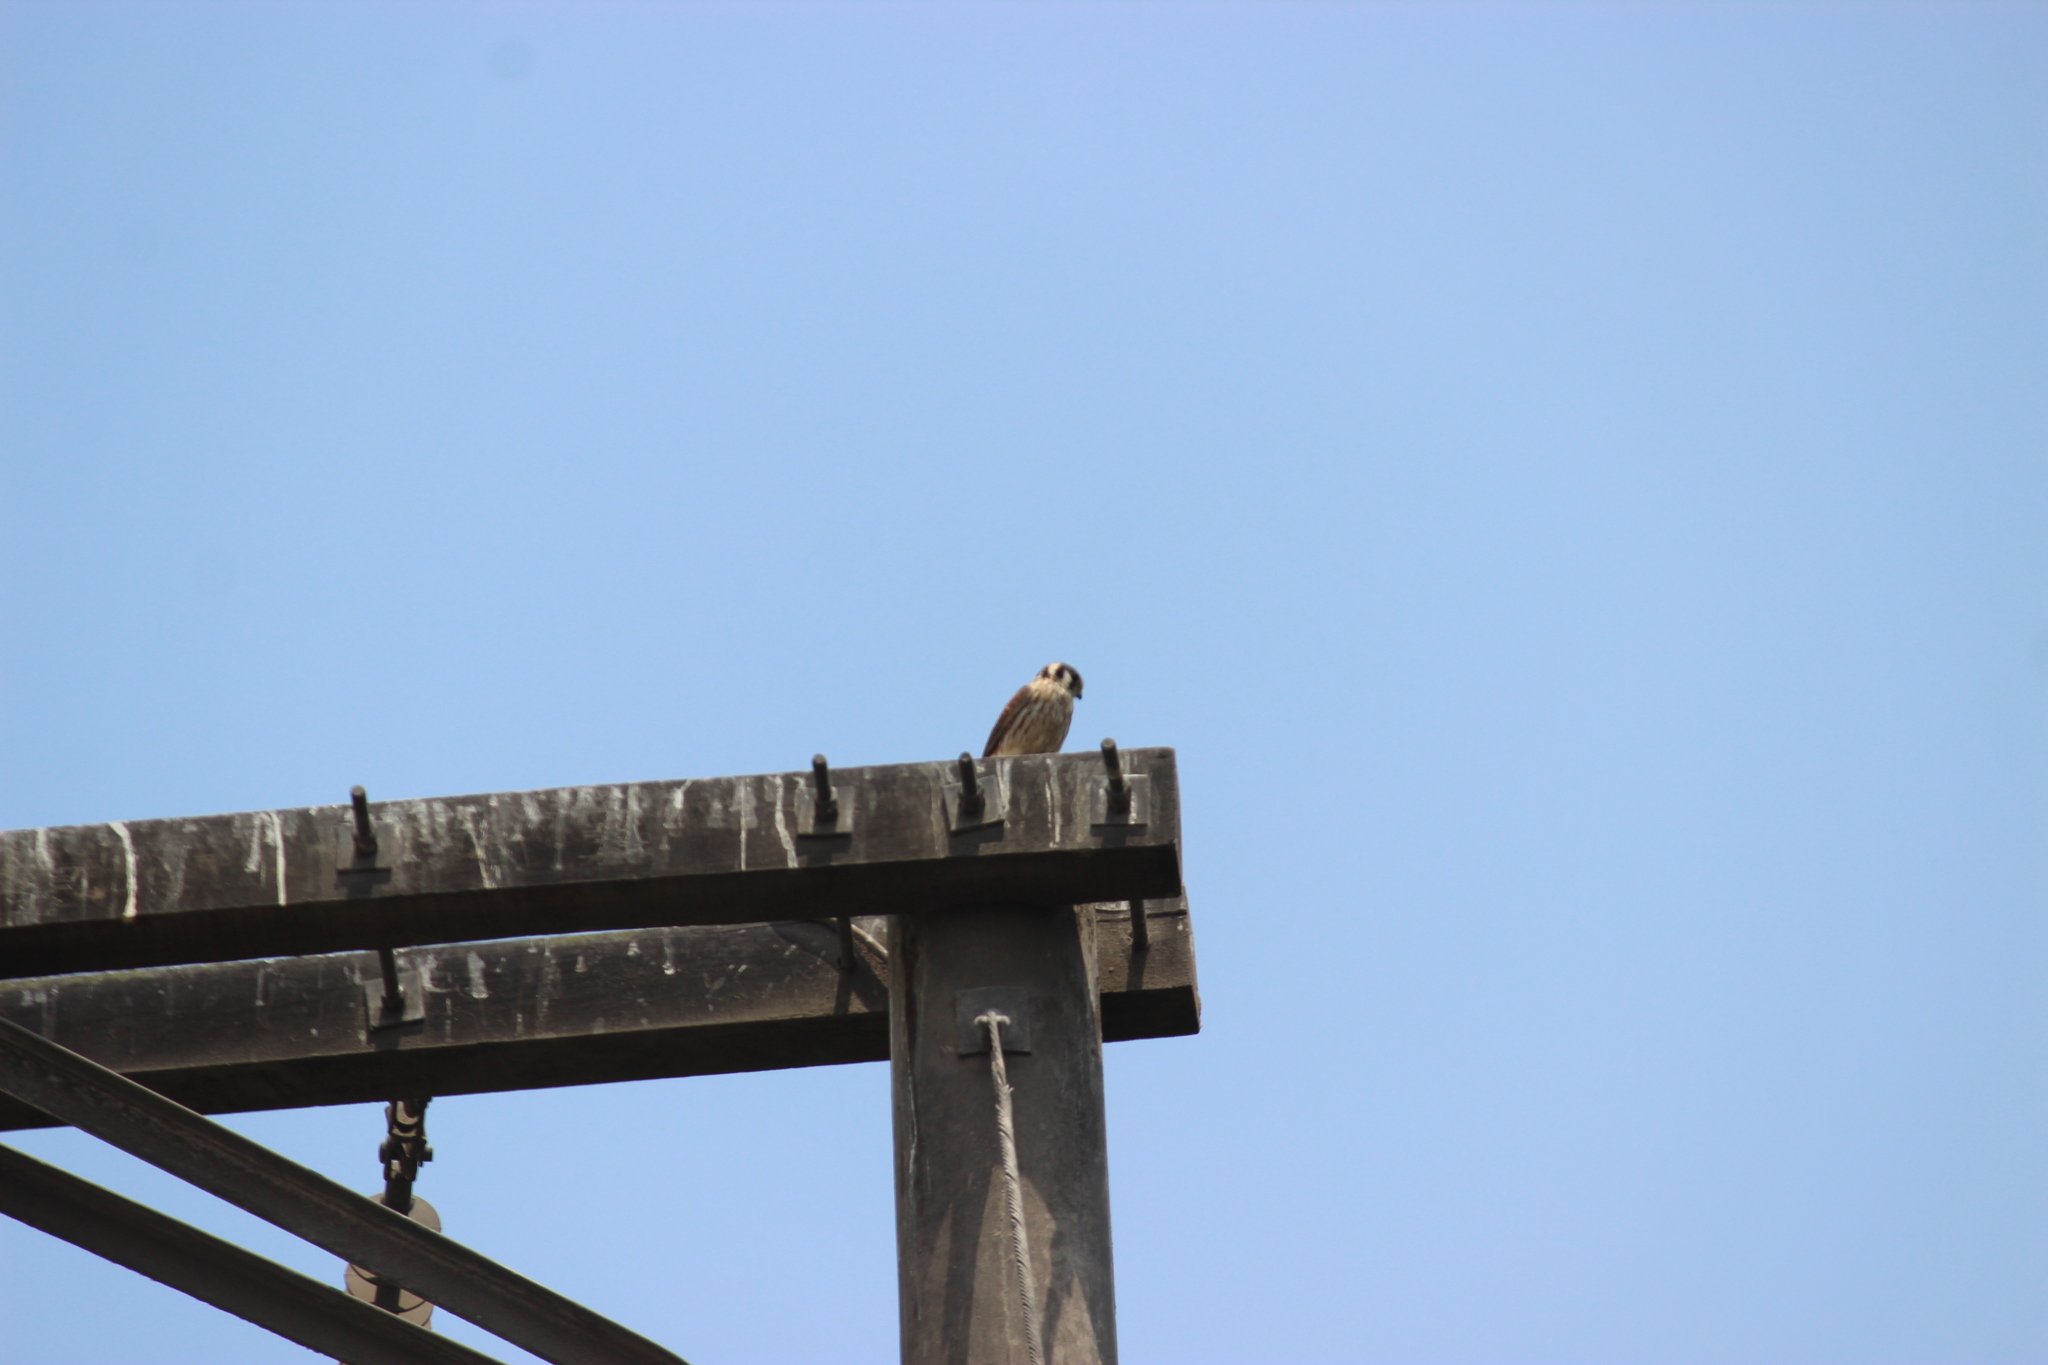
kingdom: Animalia
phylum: Chordata
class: Aves
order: Falconiformes
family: Falconidae
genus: Falco
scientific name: Falco sparverius
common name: American kestrel
